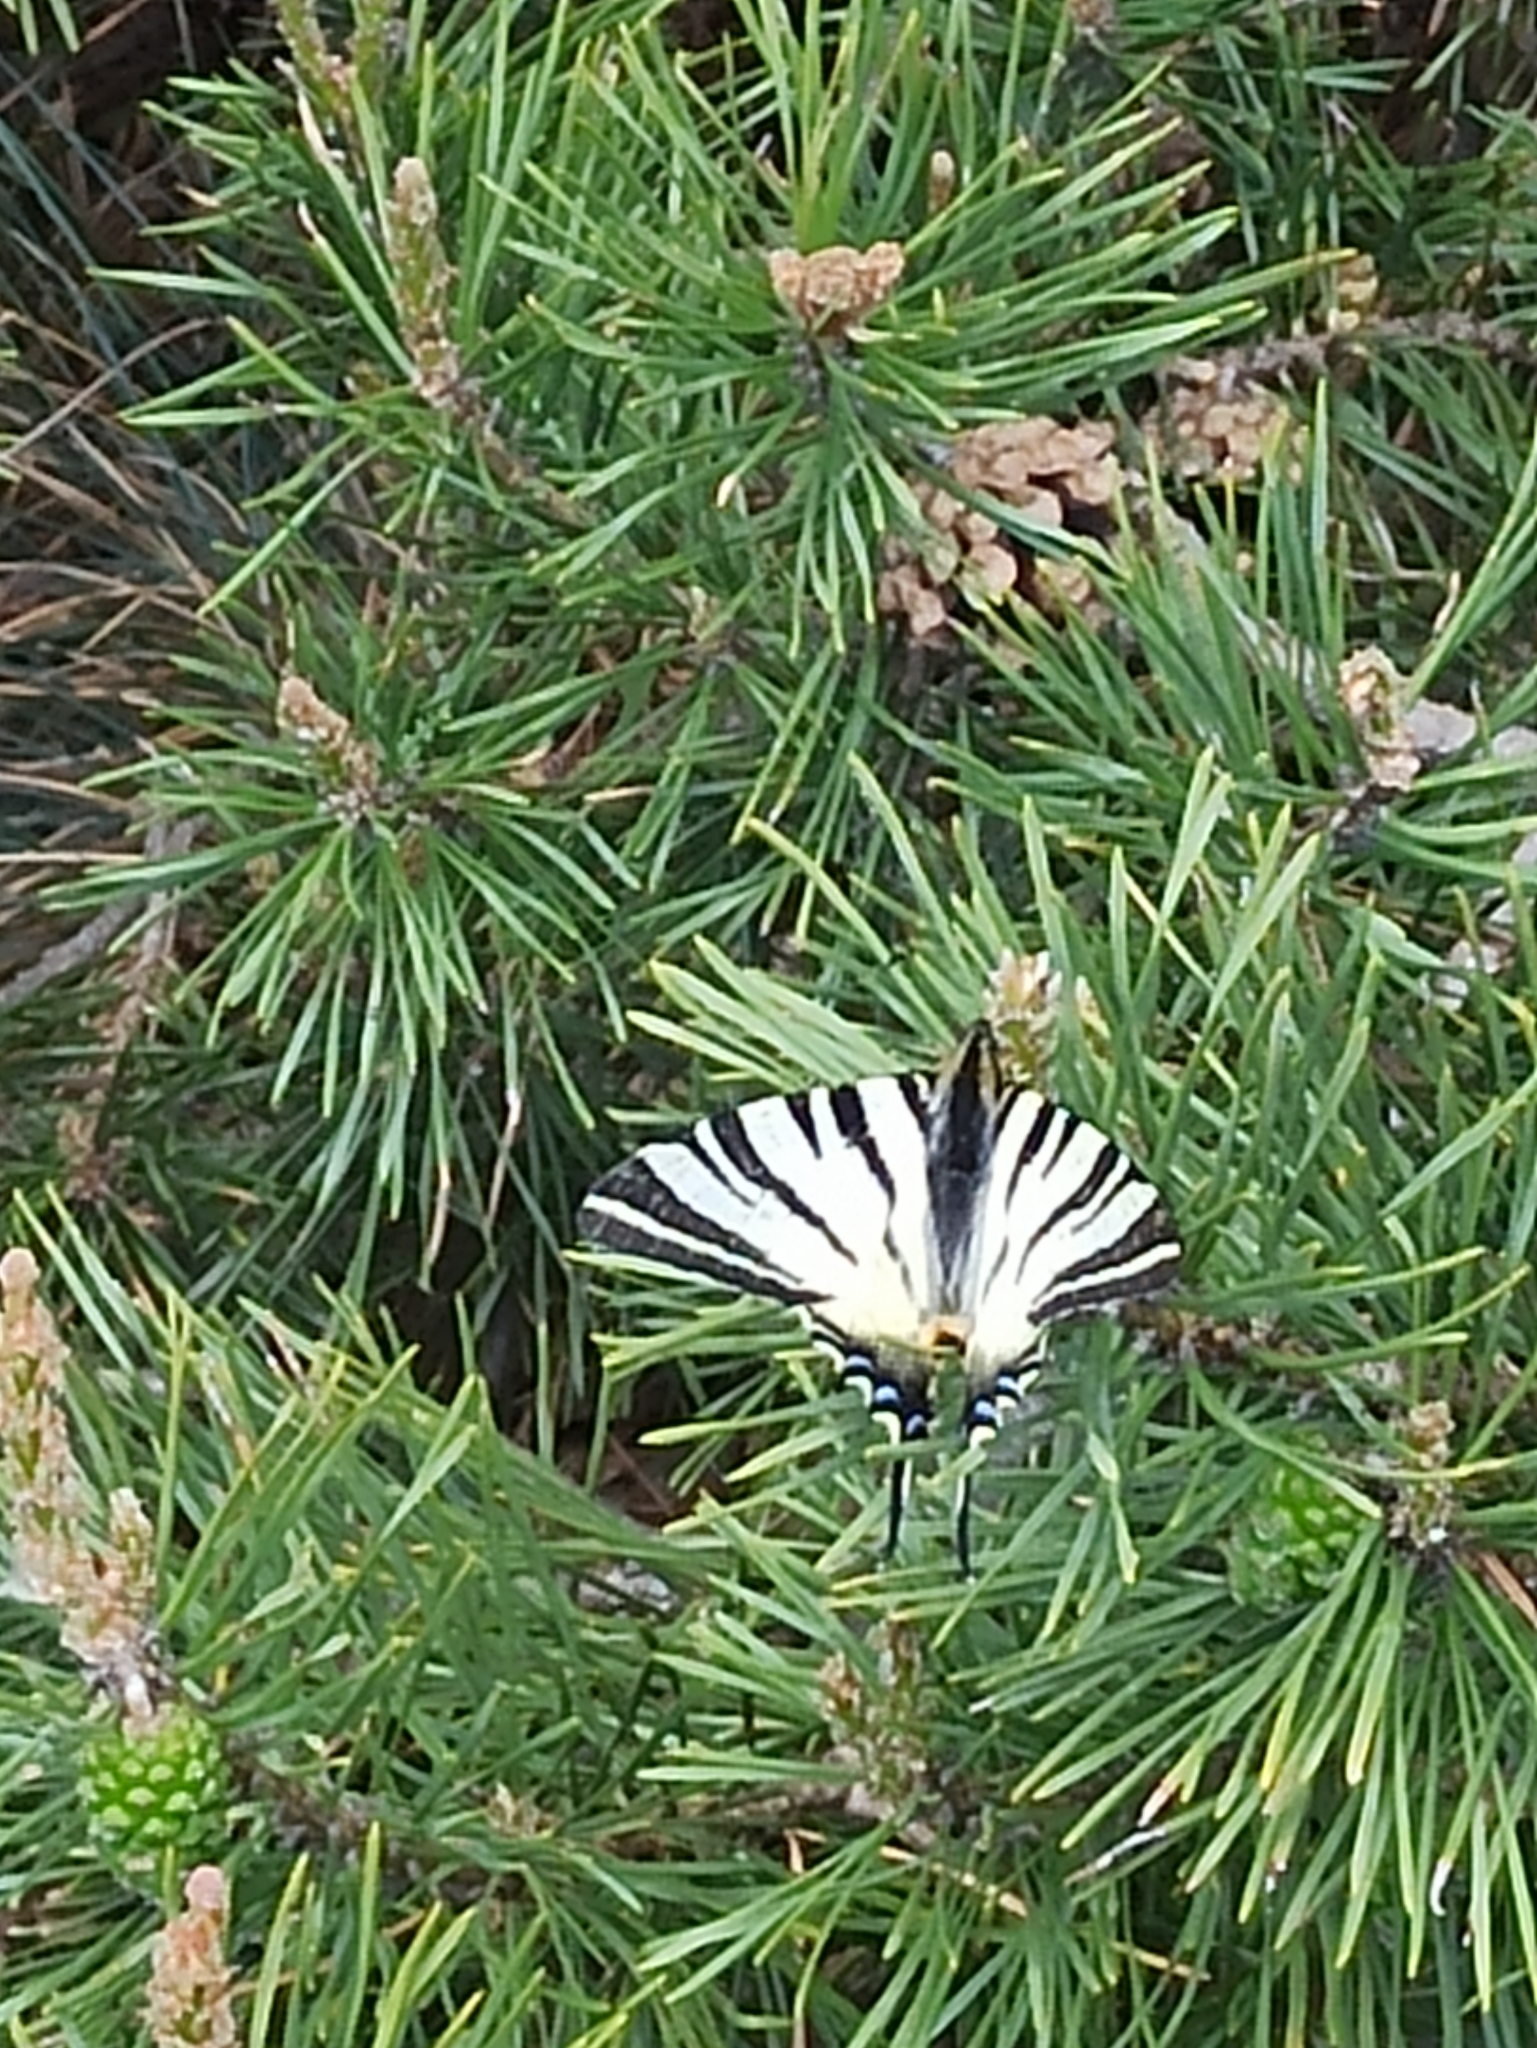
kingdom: Animalia
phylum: Arthropoda
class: Insecta
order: Lepidoptera
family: Papilionidae
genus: Iphiclides
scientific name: Iphiclides podalirius
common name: Scarce swallowtail
